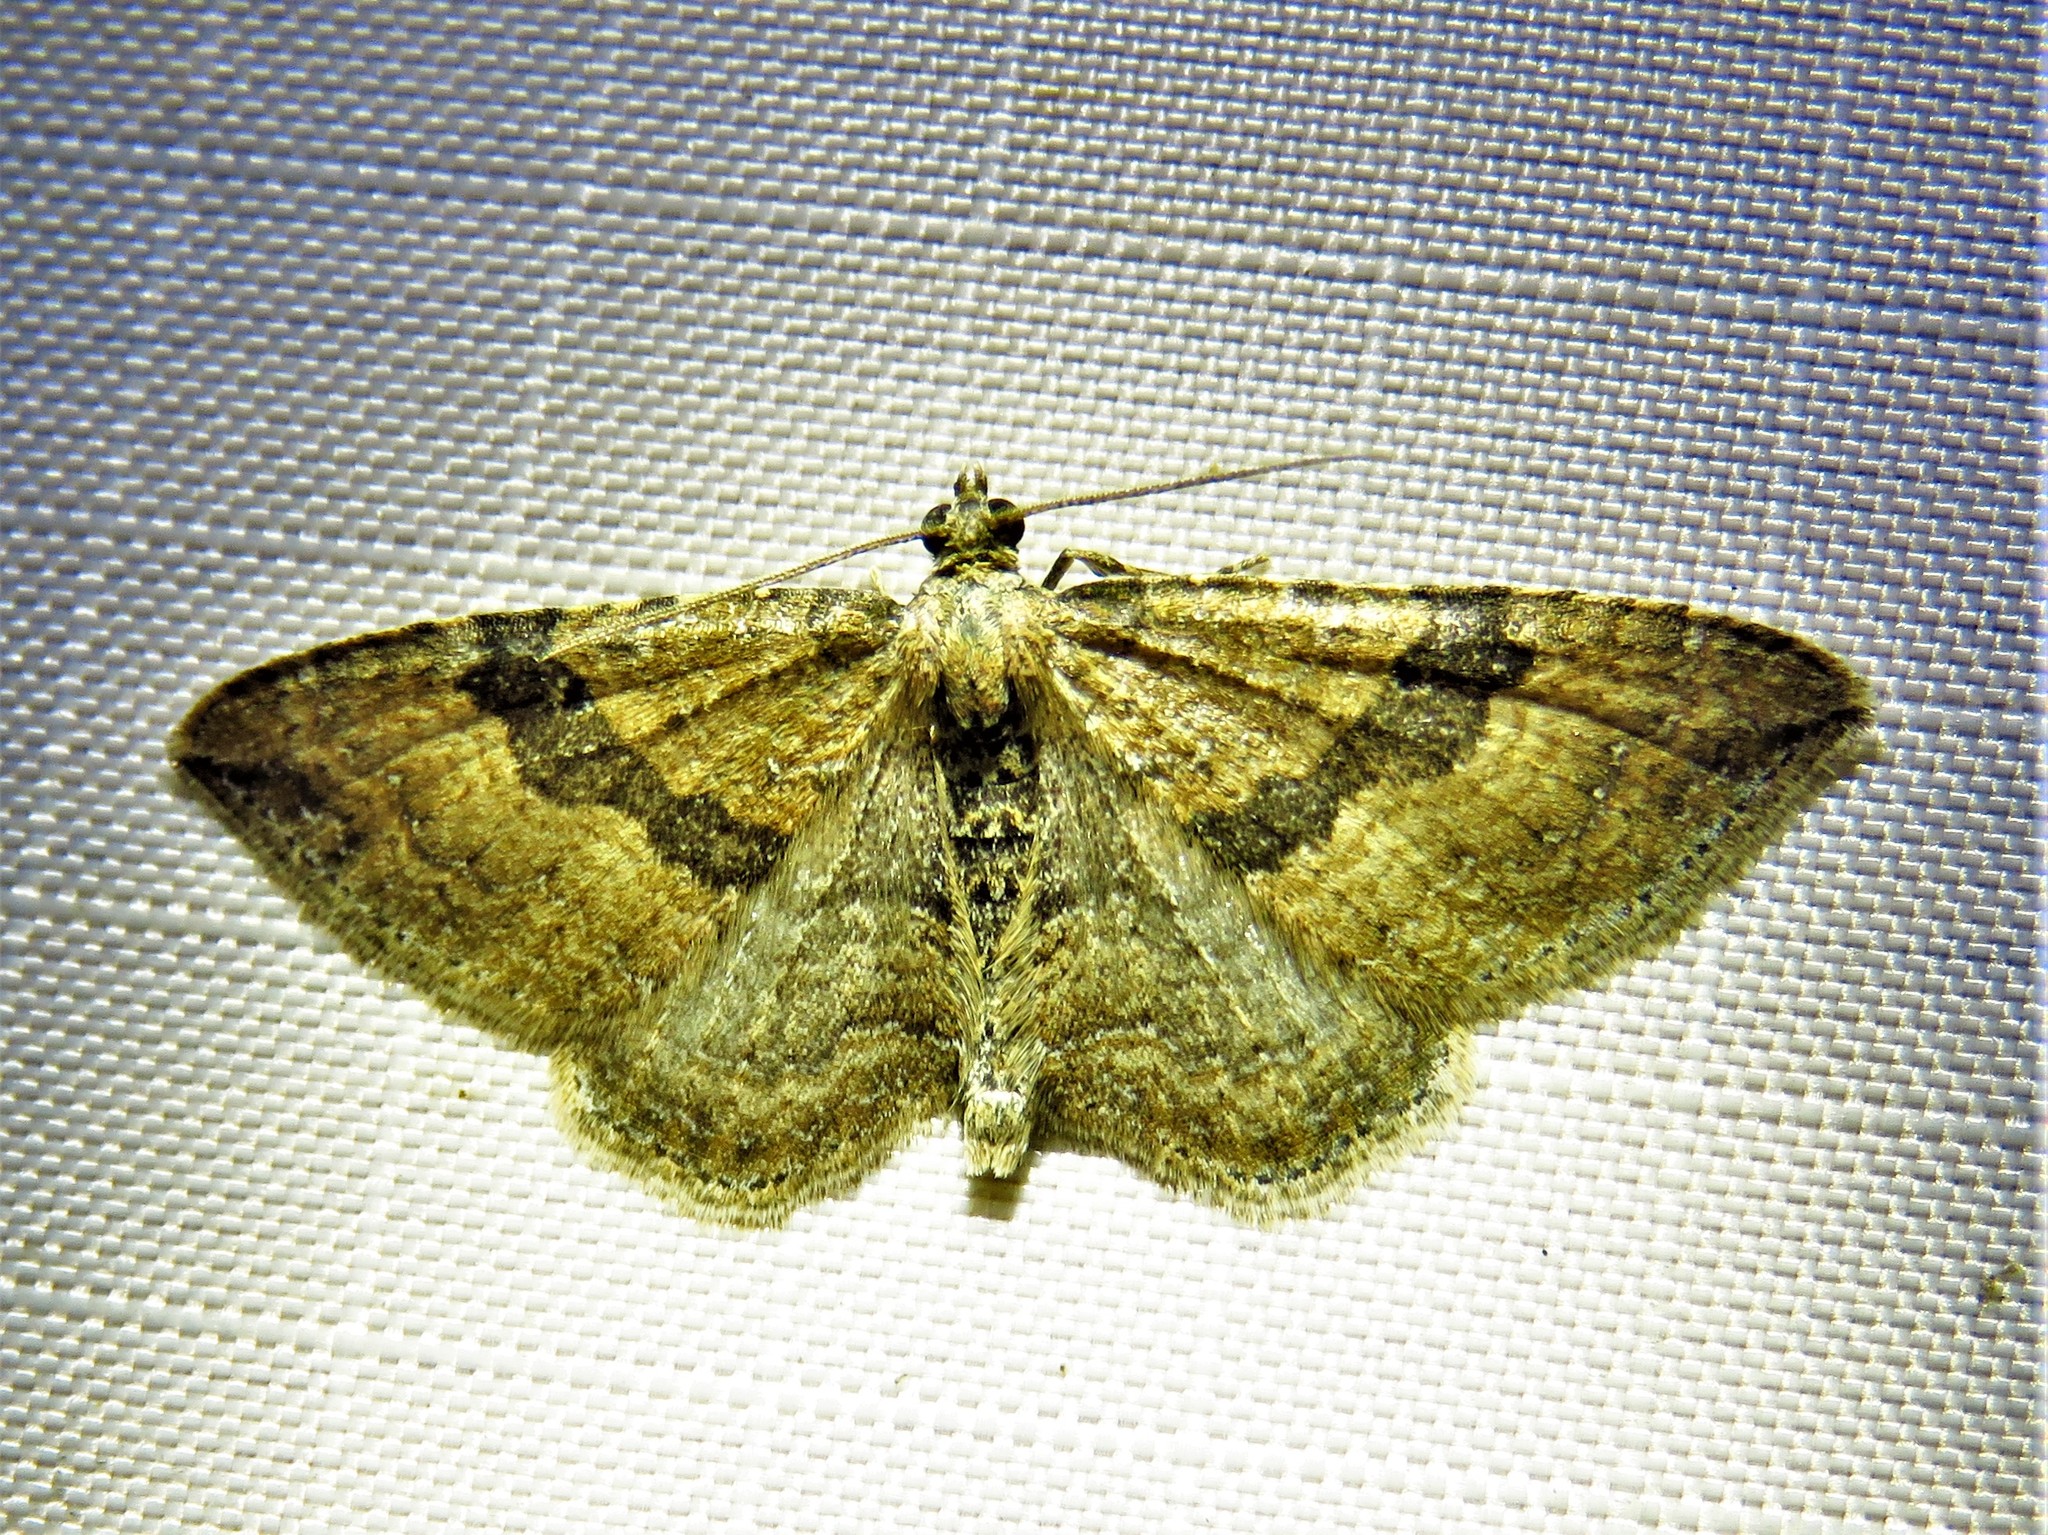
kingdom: Animalia
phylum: Arthropoda
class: Insecta
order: Lepidoptera
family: Geometridae
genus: Orthonama
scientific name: Orthonama obstipata
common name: The gem
